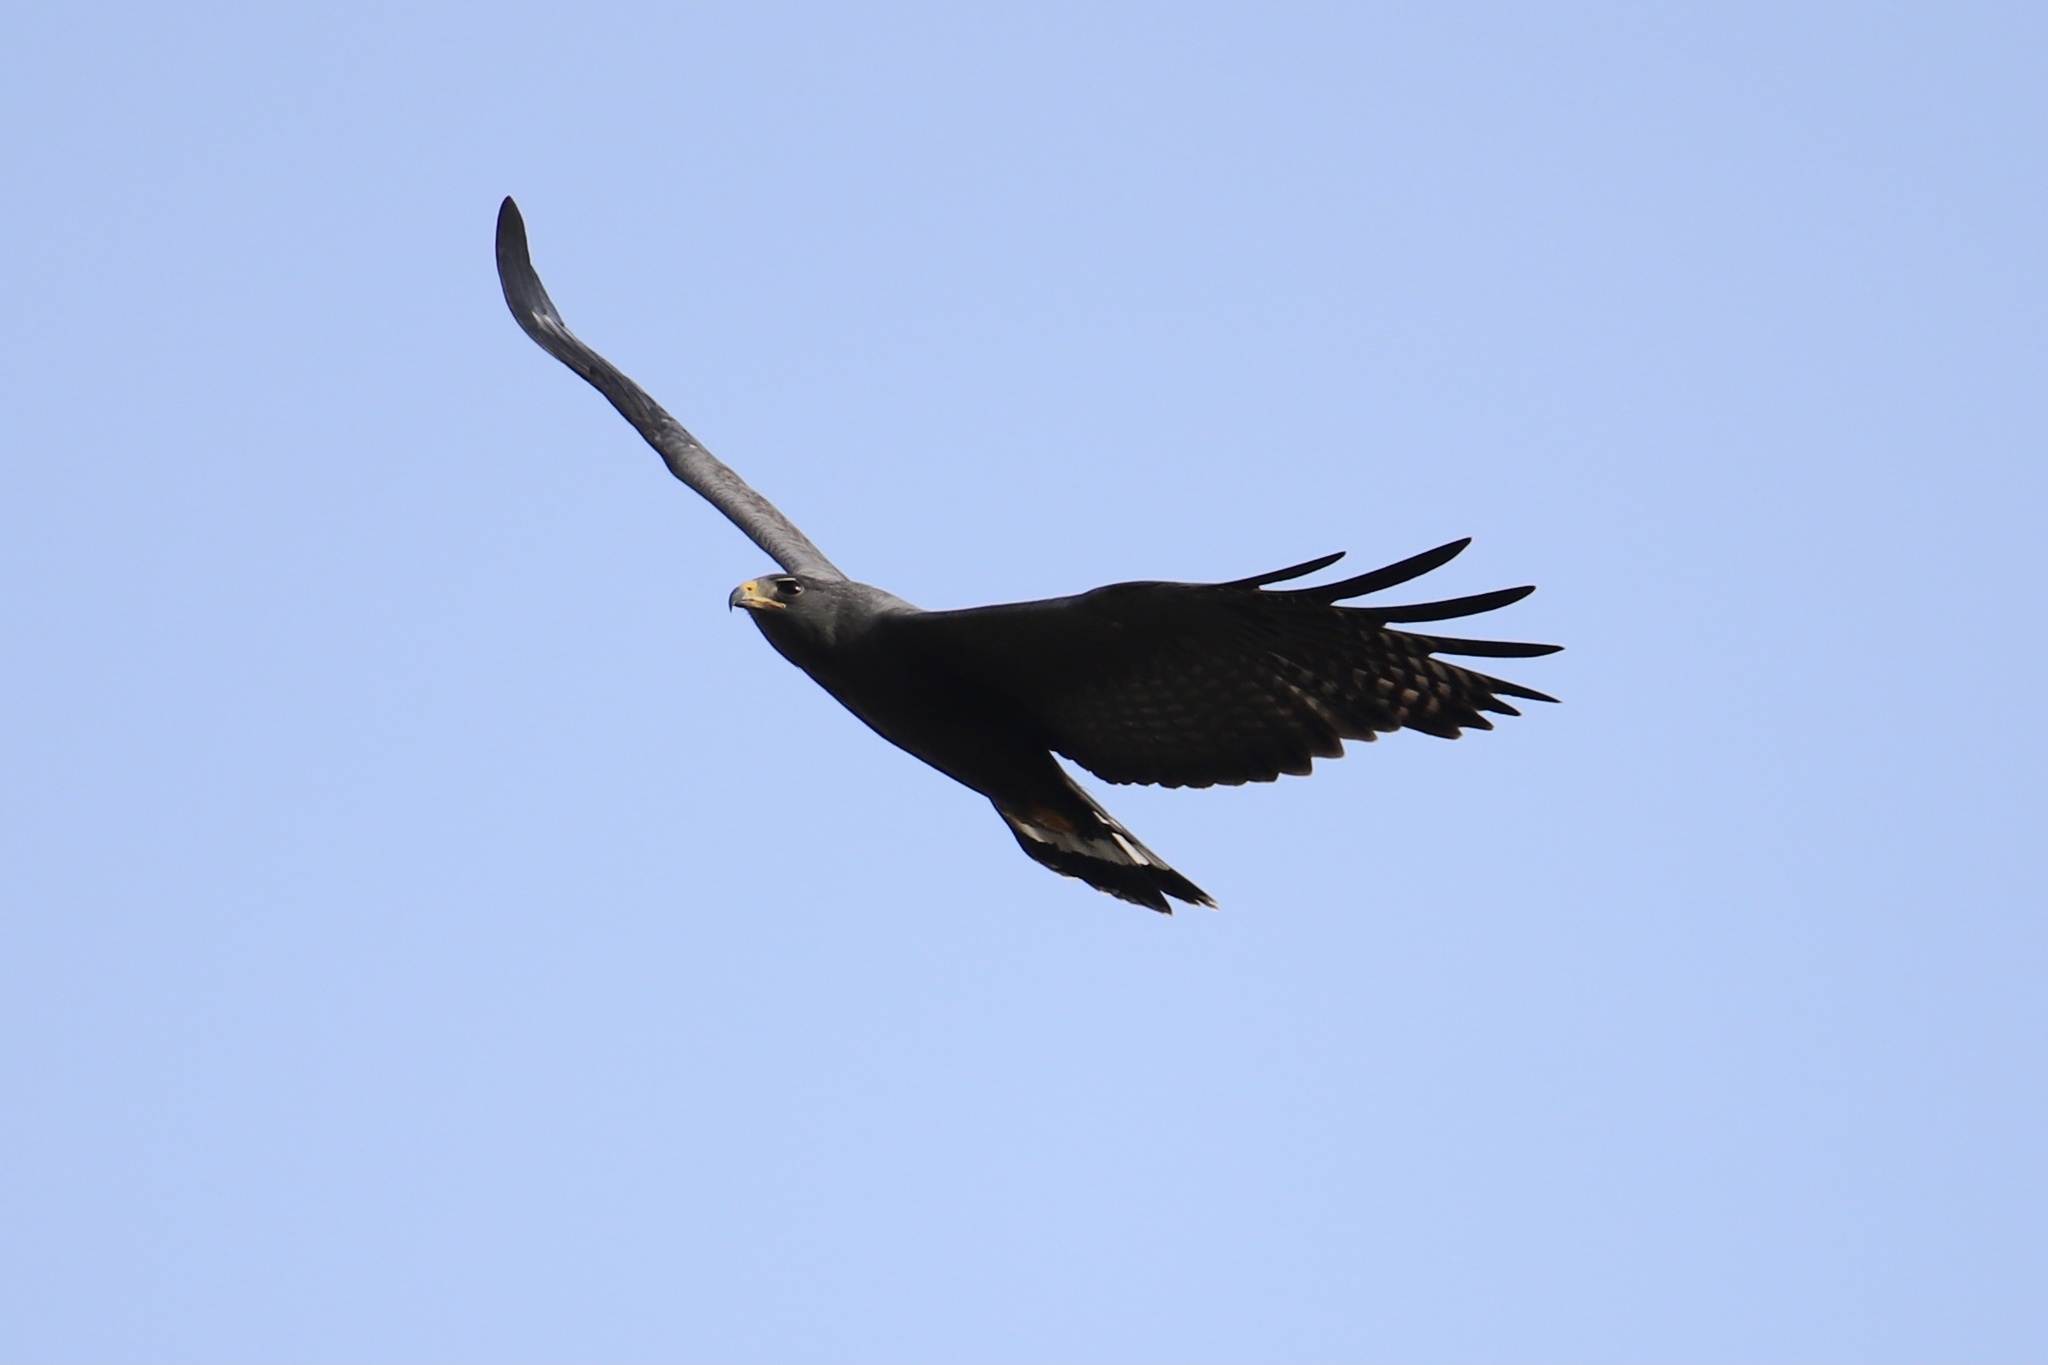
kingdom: Animalia
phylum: Chordata
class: Aves
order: Accipitriformes
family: Accipitridae
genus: Buteo
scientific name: Buteo albonotatus
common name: Zone-tailed hawk
